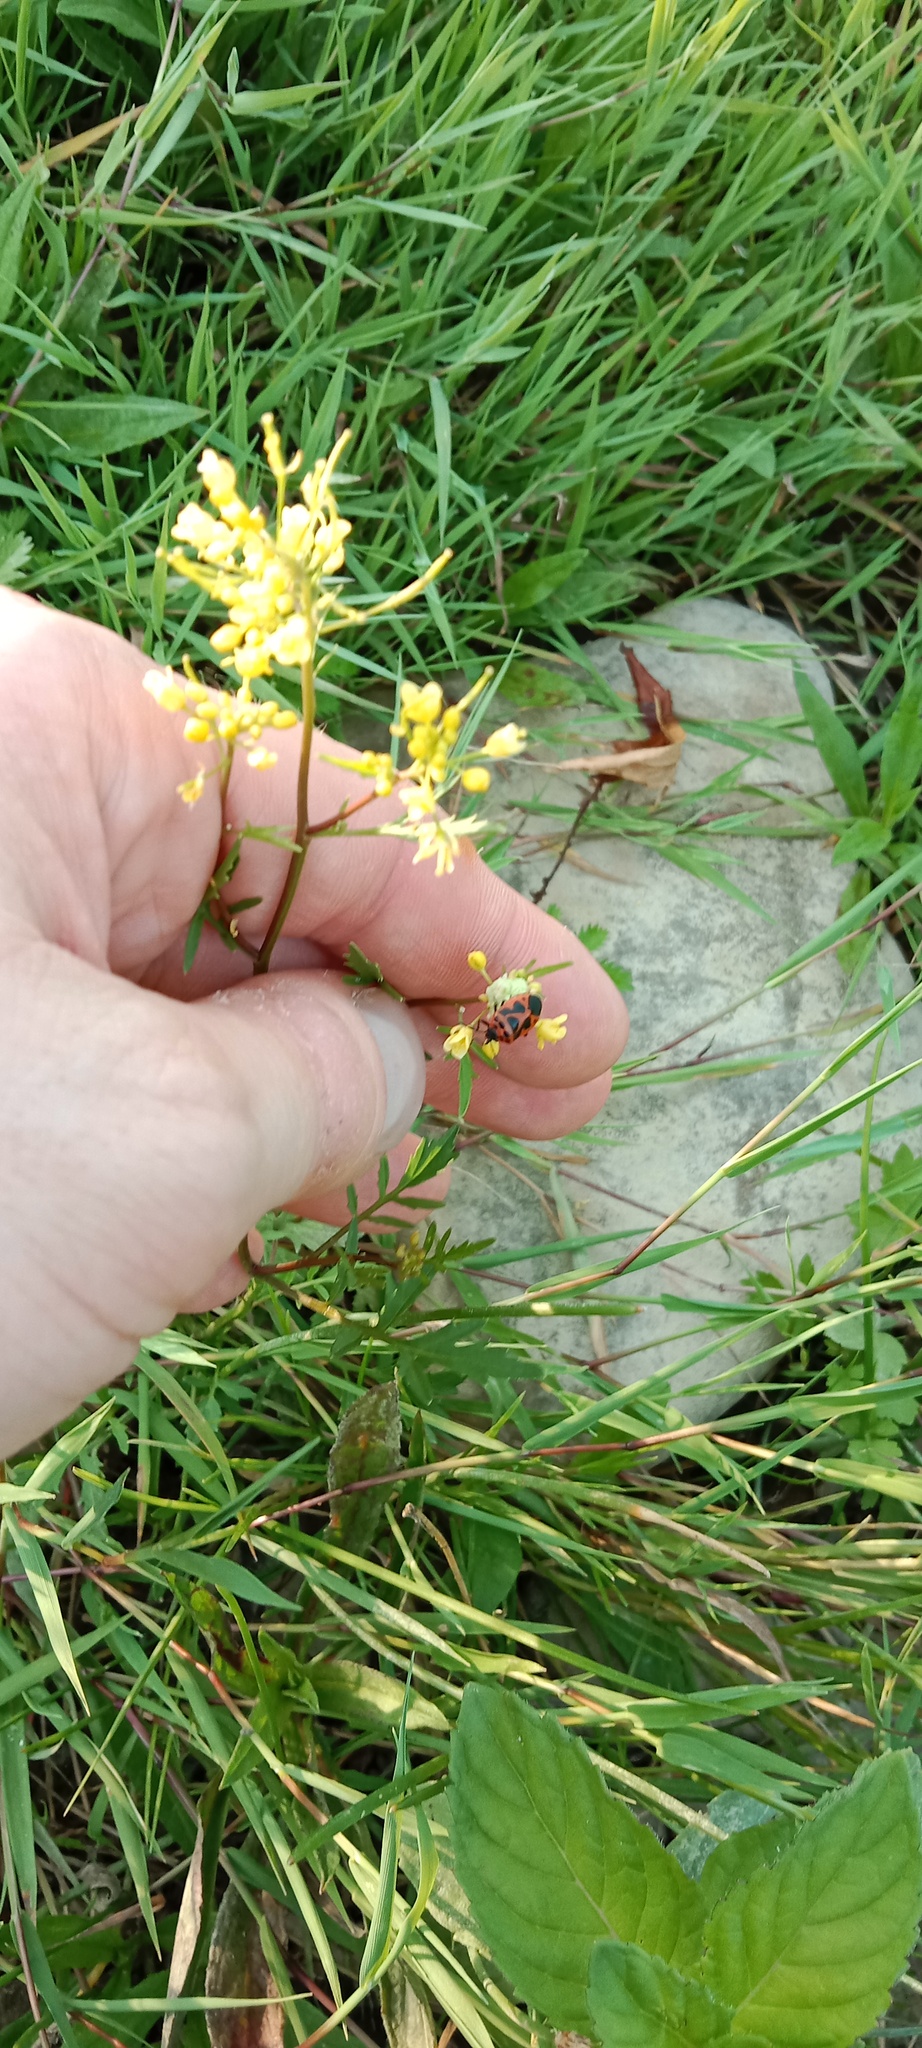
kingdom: Plantae
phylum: Tracheophyta
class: Magnoliopsida
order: Brassicales
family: Brassicaceae
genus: Rorippa
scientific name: Rorippa sylvestris
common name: Creeping yellowcress
